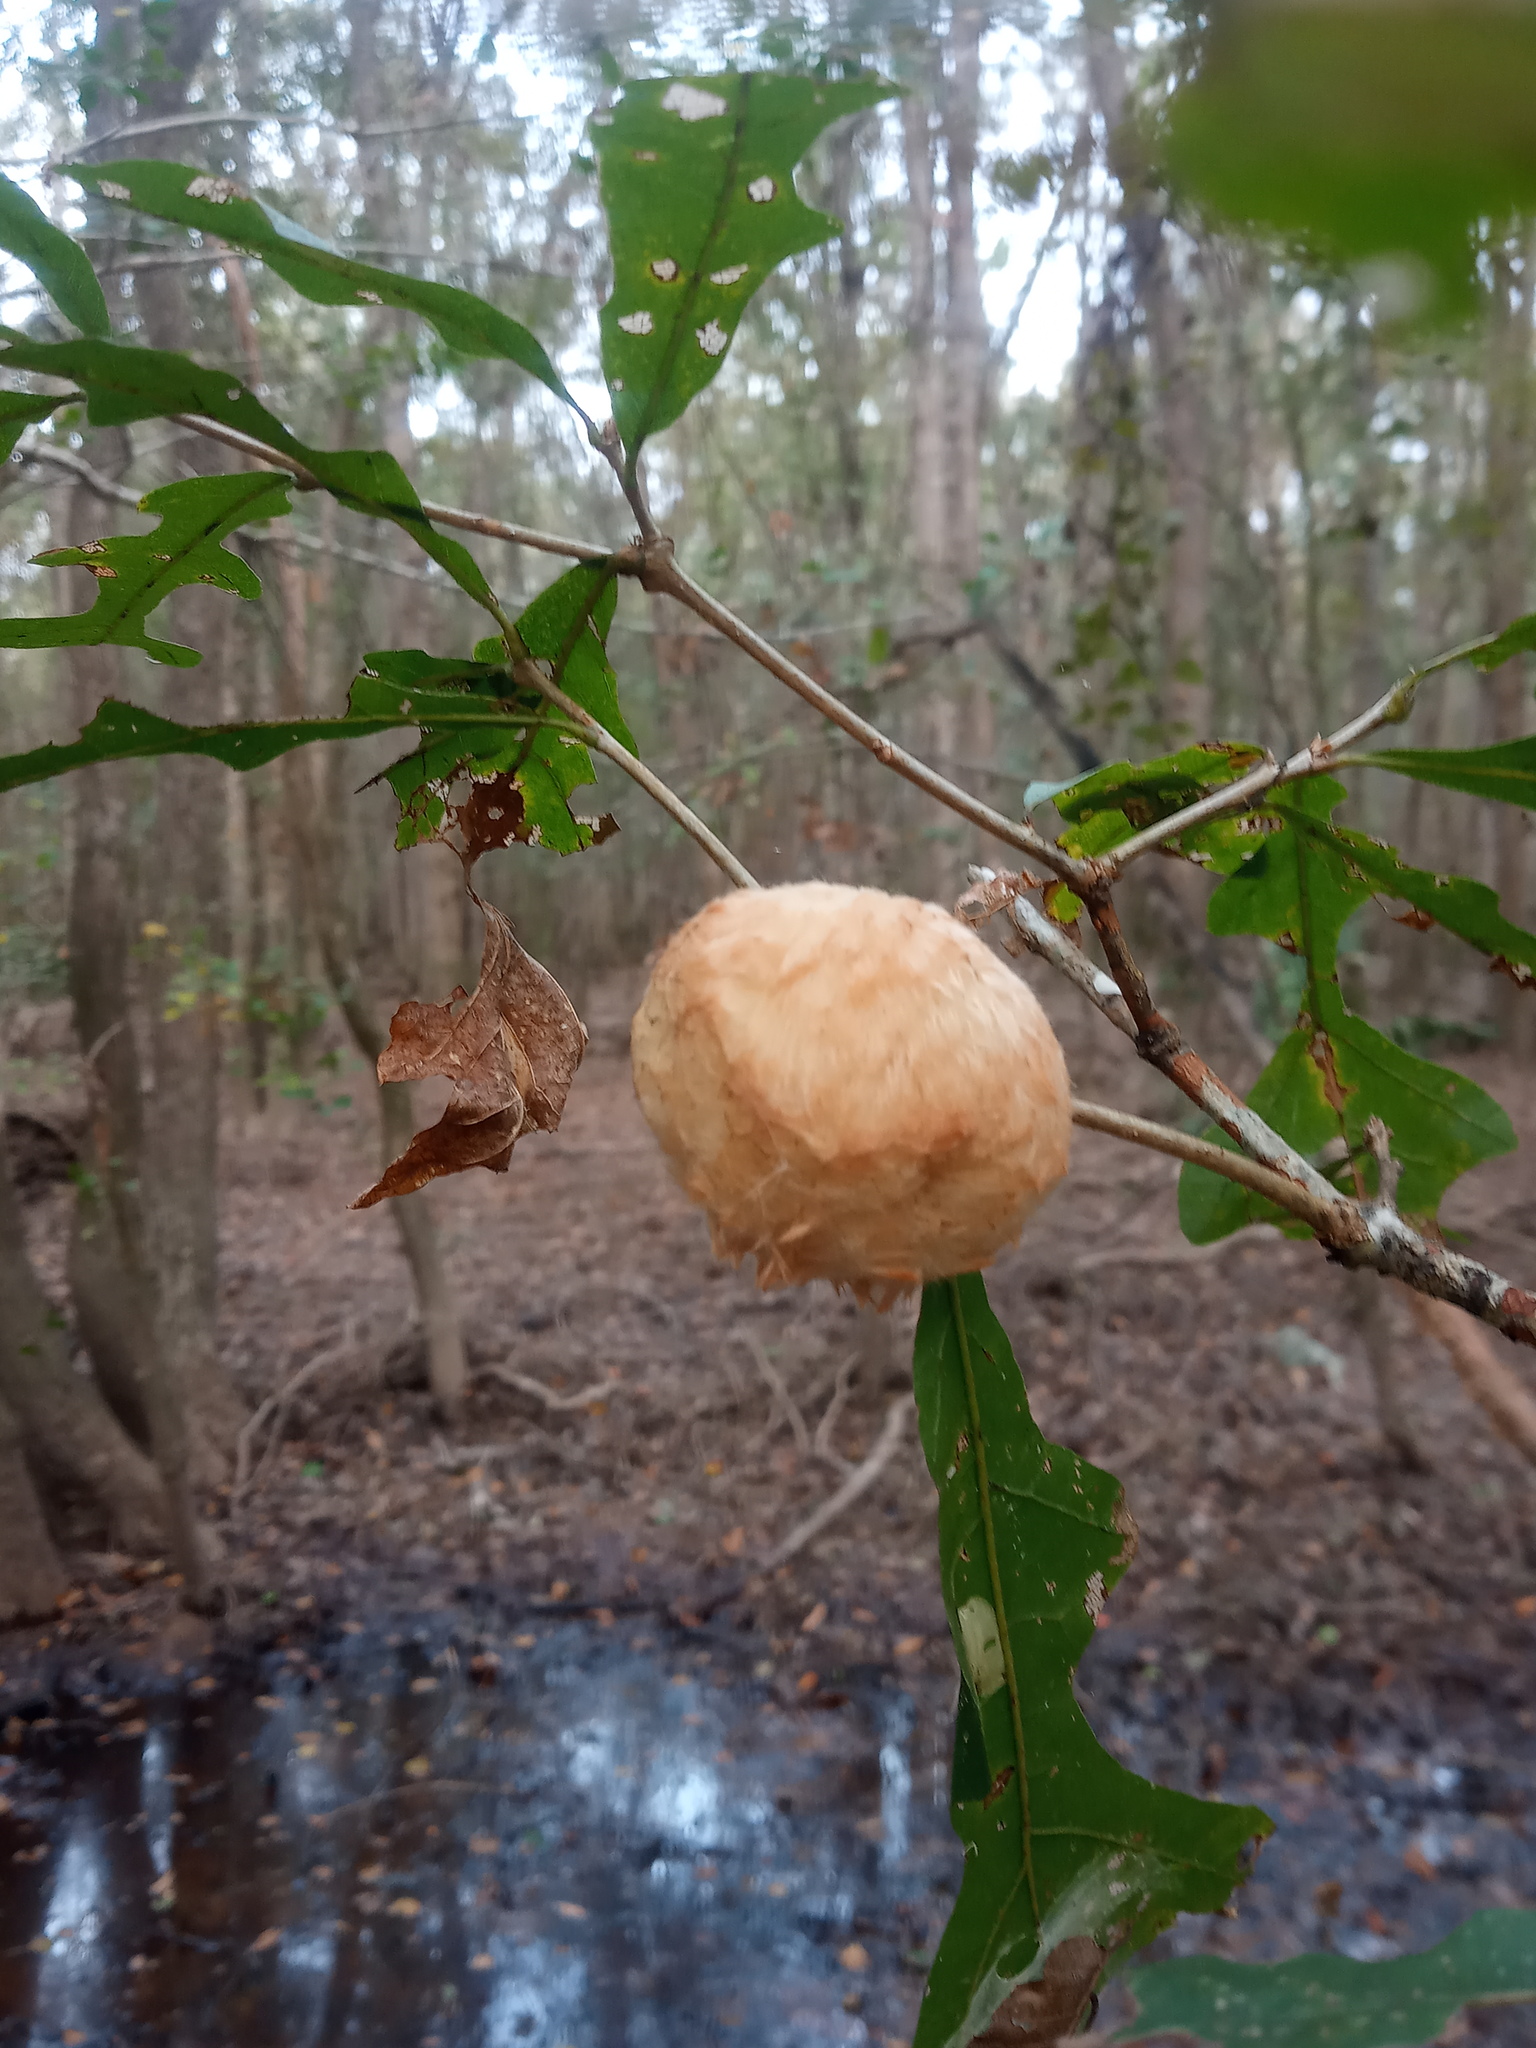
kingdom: Animalia
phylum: Arthropoda
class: Insecta
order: Hymenoptera
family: Cynipidae
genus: Striatoandricus
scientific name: Striatoandricus aciculatus
